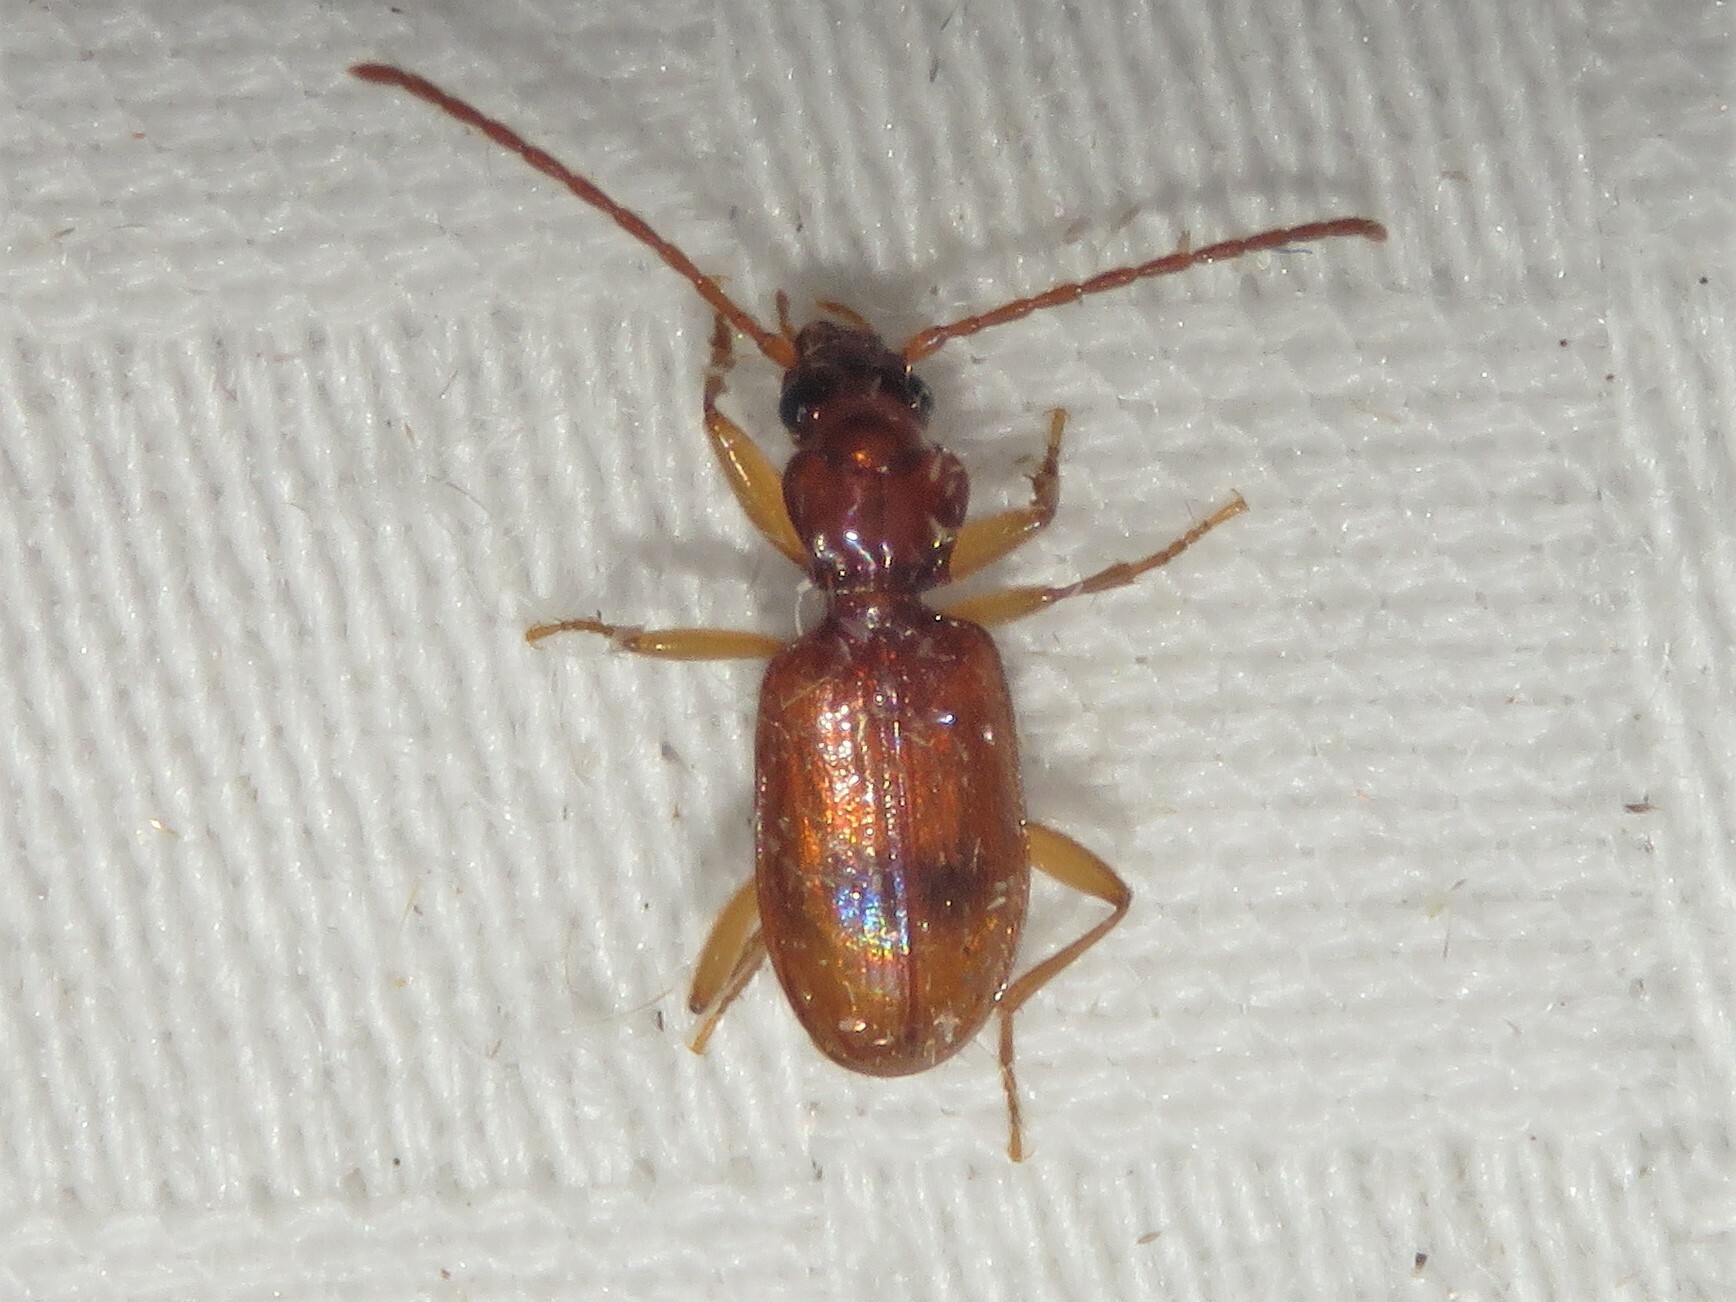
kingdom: Animalia
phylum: Arthropoda
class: Insecta
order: Coleoptera
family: Carabidae
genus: Blemus
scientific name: Blemus discus
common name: Discus riverbank ground beetle
